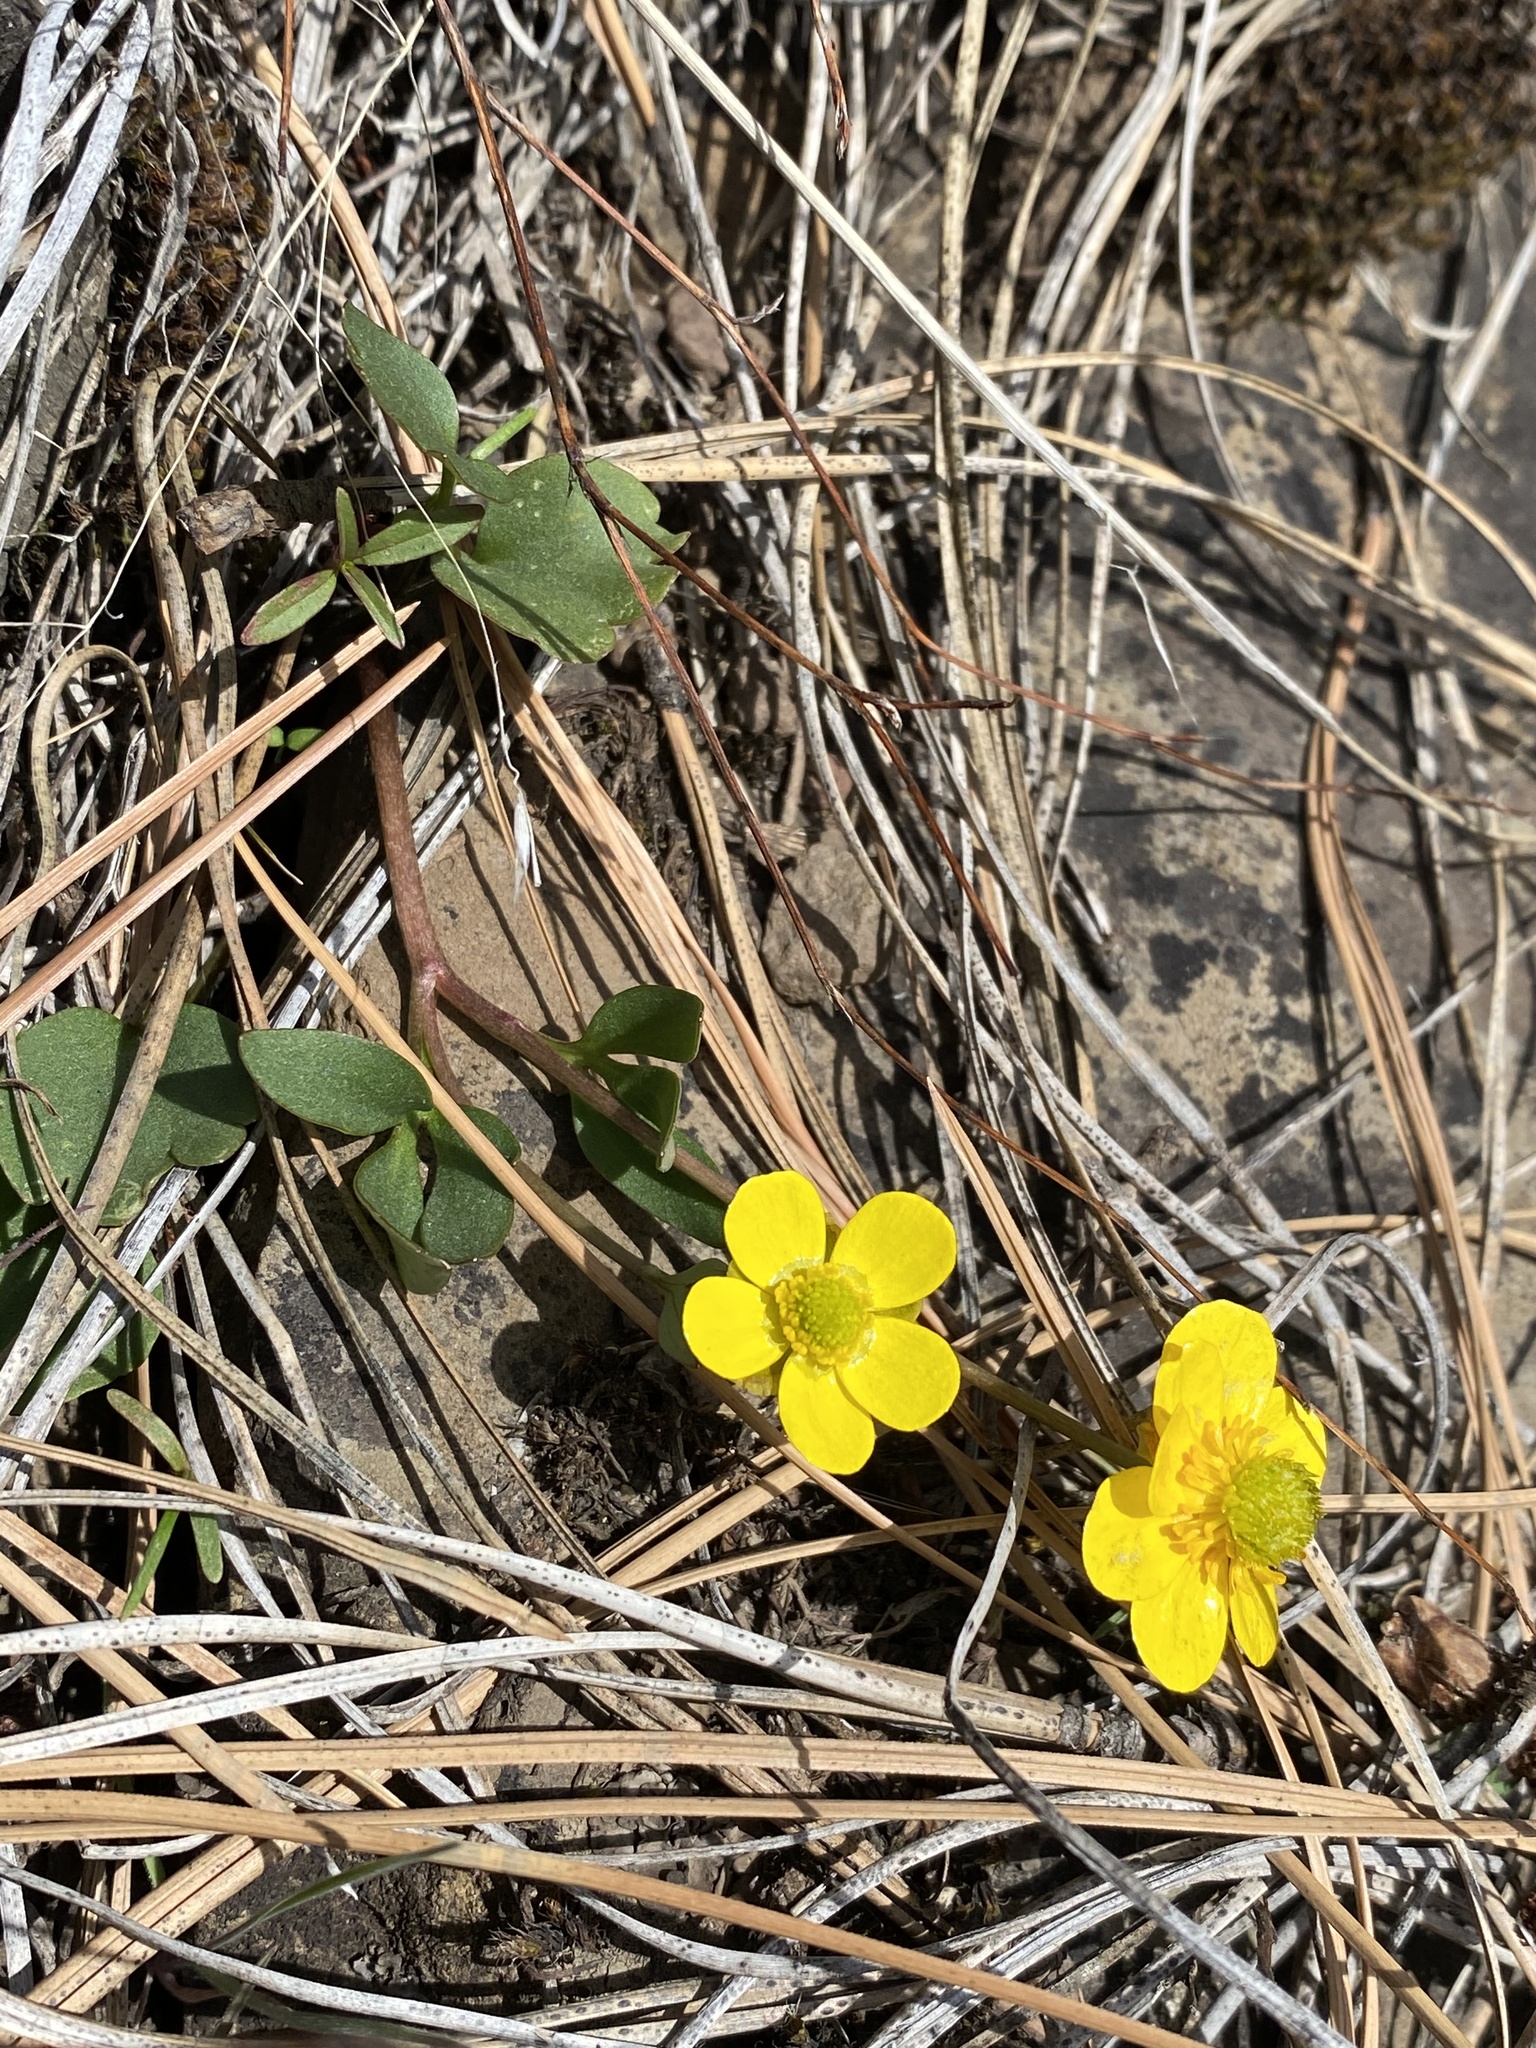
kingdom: Plantae
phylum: Tracheophyta
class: Magnoliopsida
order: Ranunculales
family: Ranunculaceae
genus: Ranunculus
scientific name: Ranunculus glaberrimus
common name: Sagebrush buttercup
